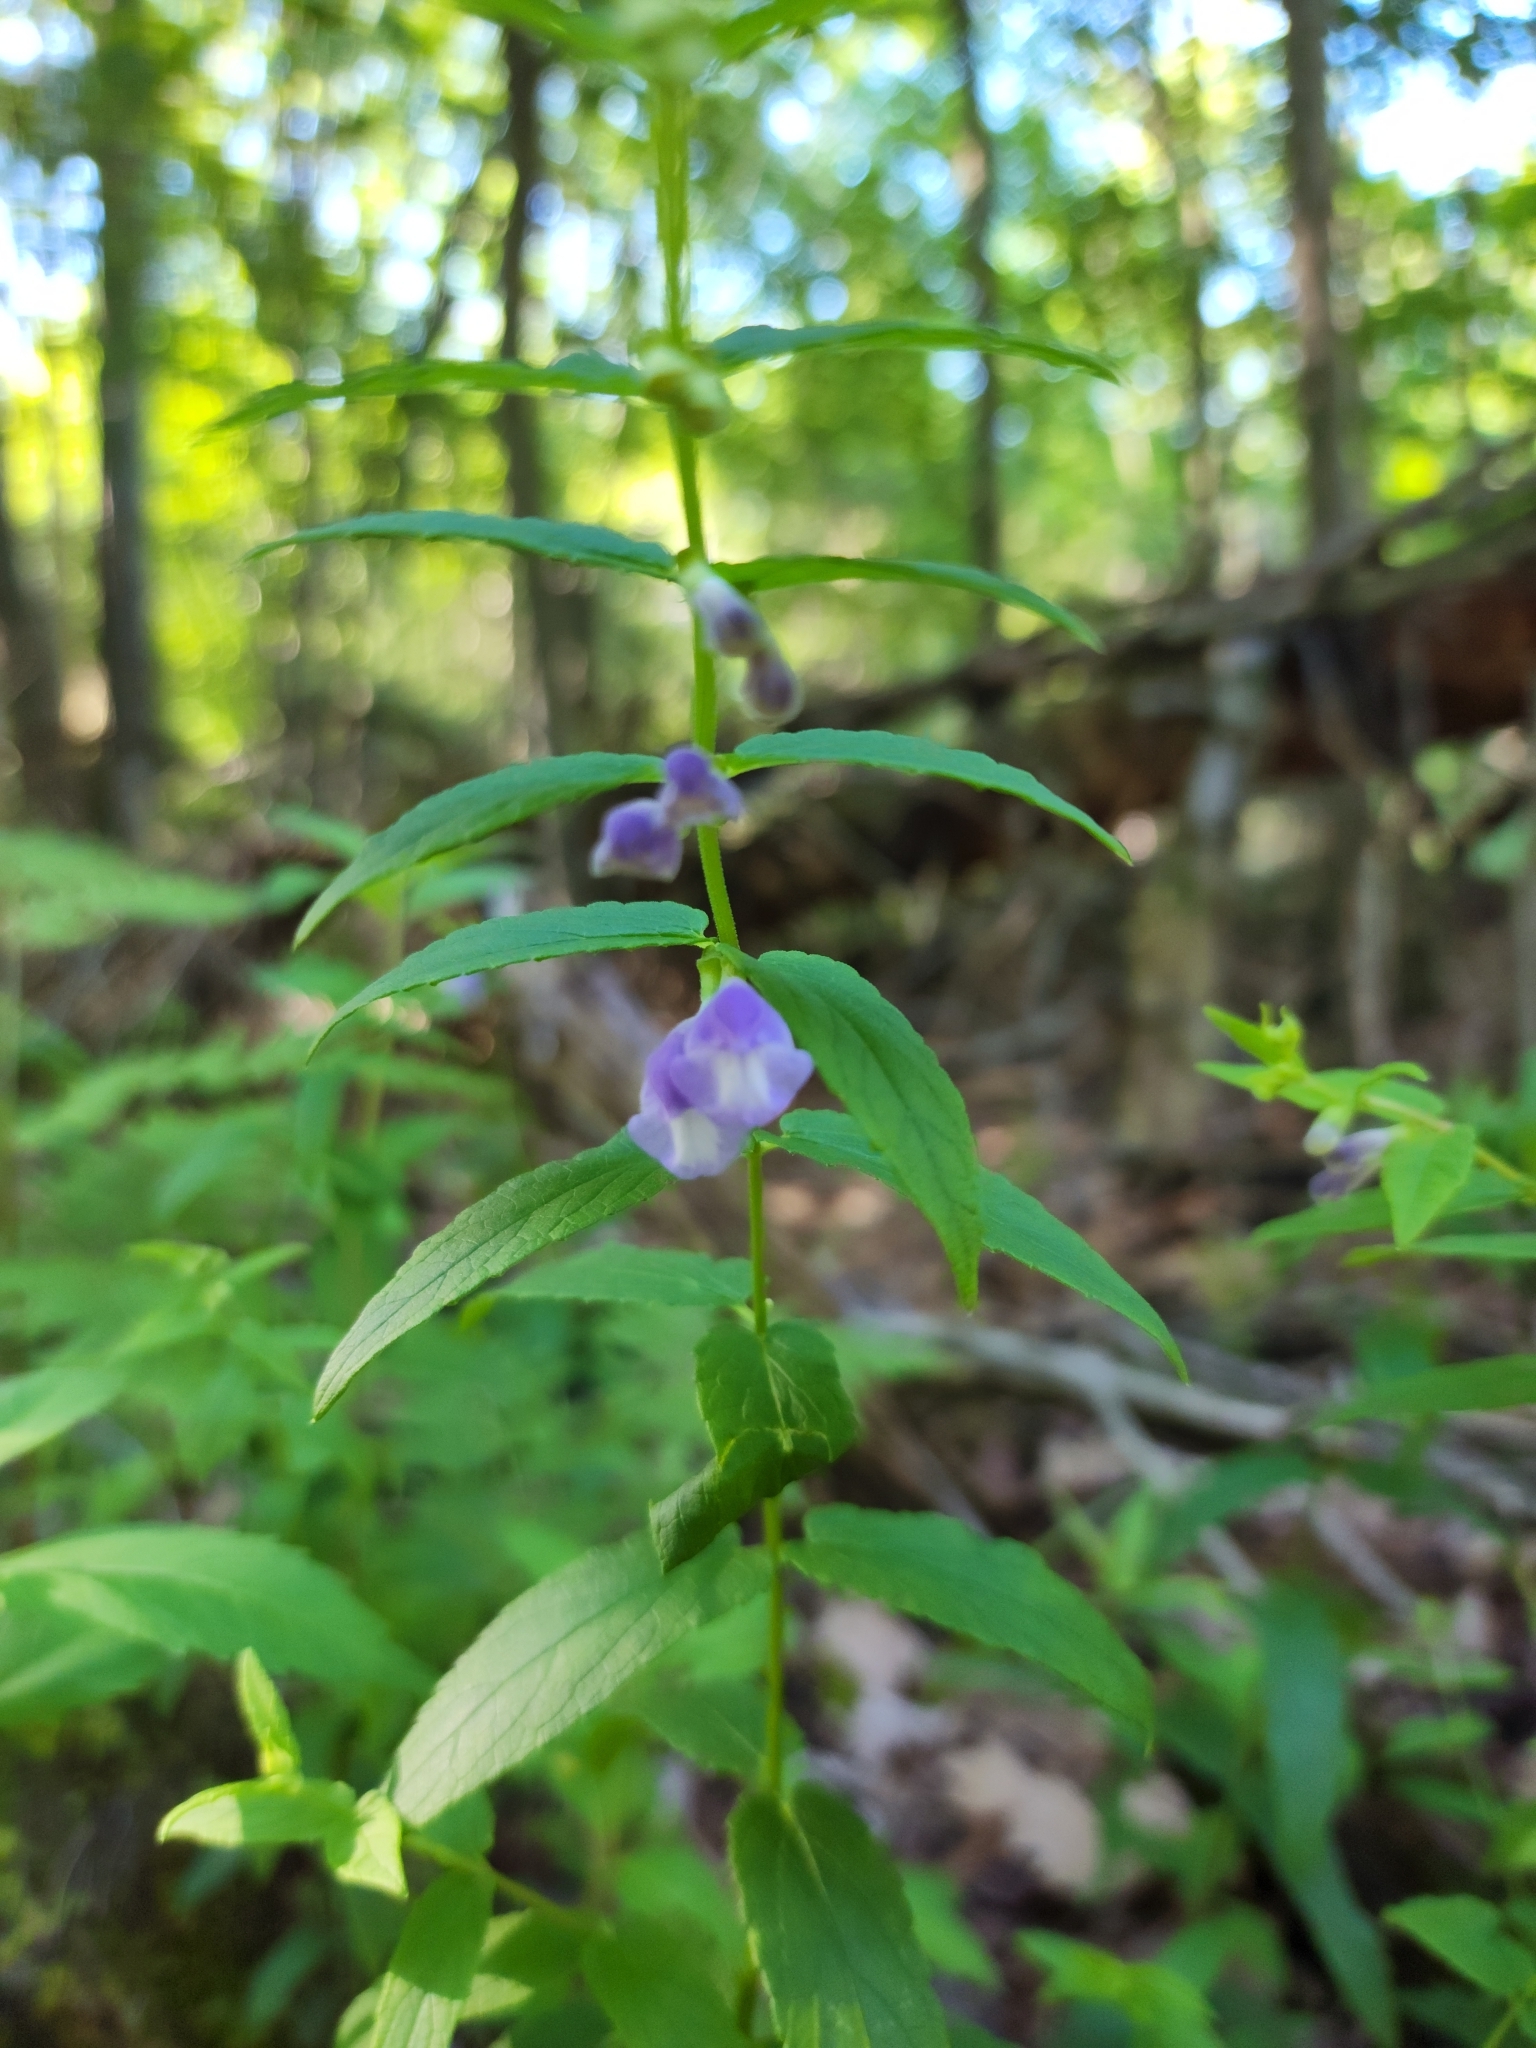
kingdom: Plantae
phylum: Tracheophyta
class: Magnoliopsida
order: Lamiales
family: Lamiaceae
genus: Scutellaria
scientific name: Scutellaria galericulata
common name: Skullcap
